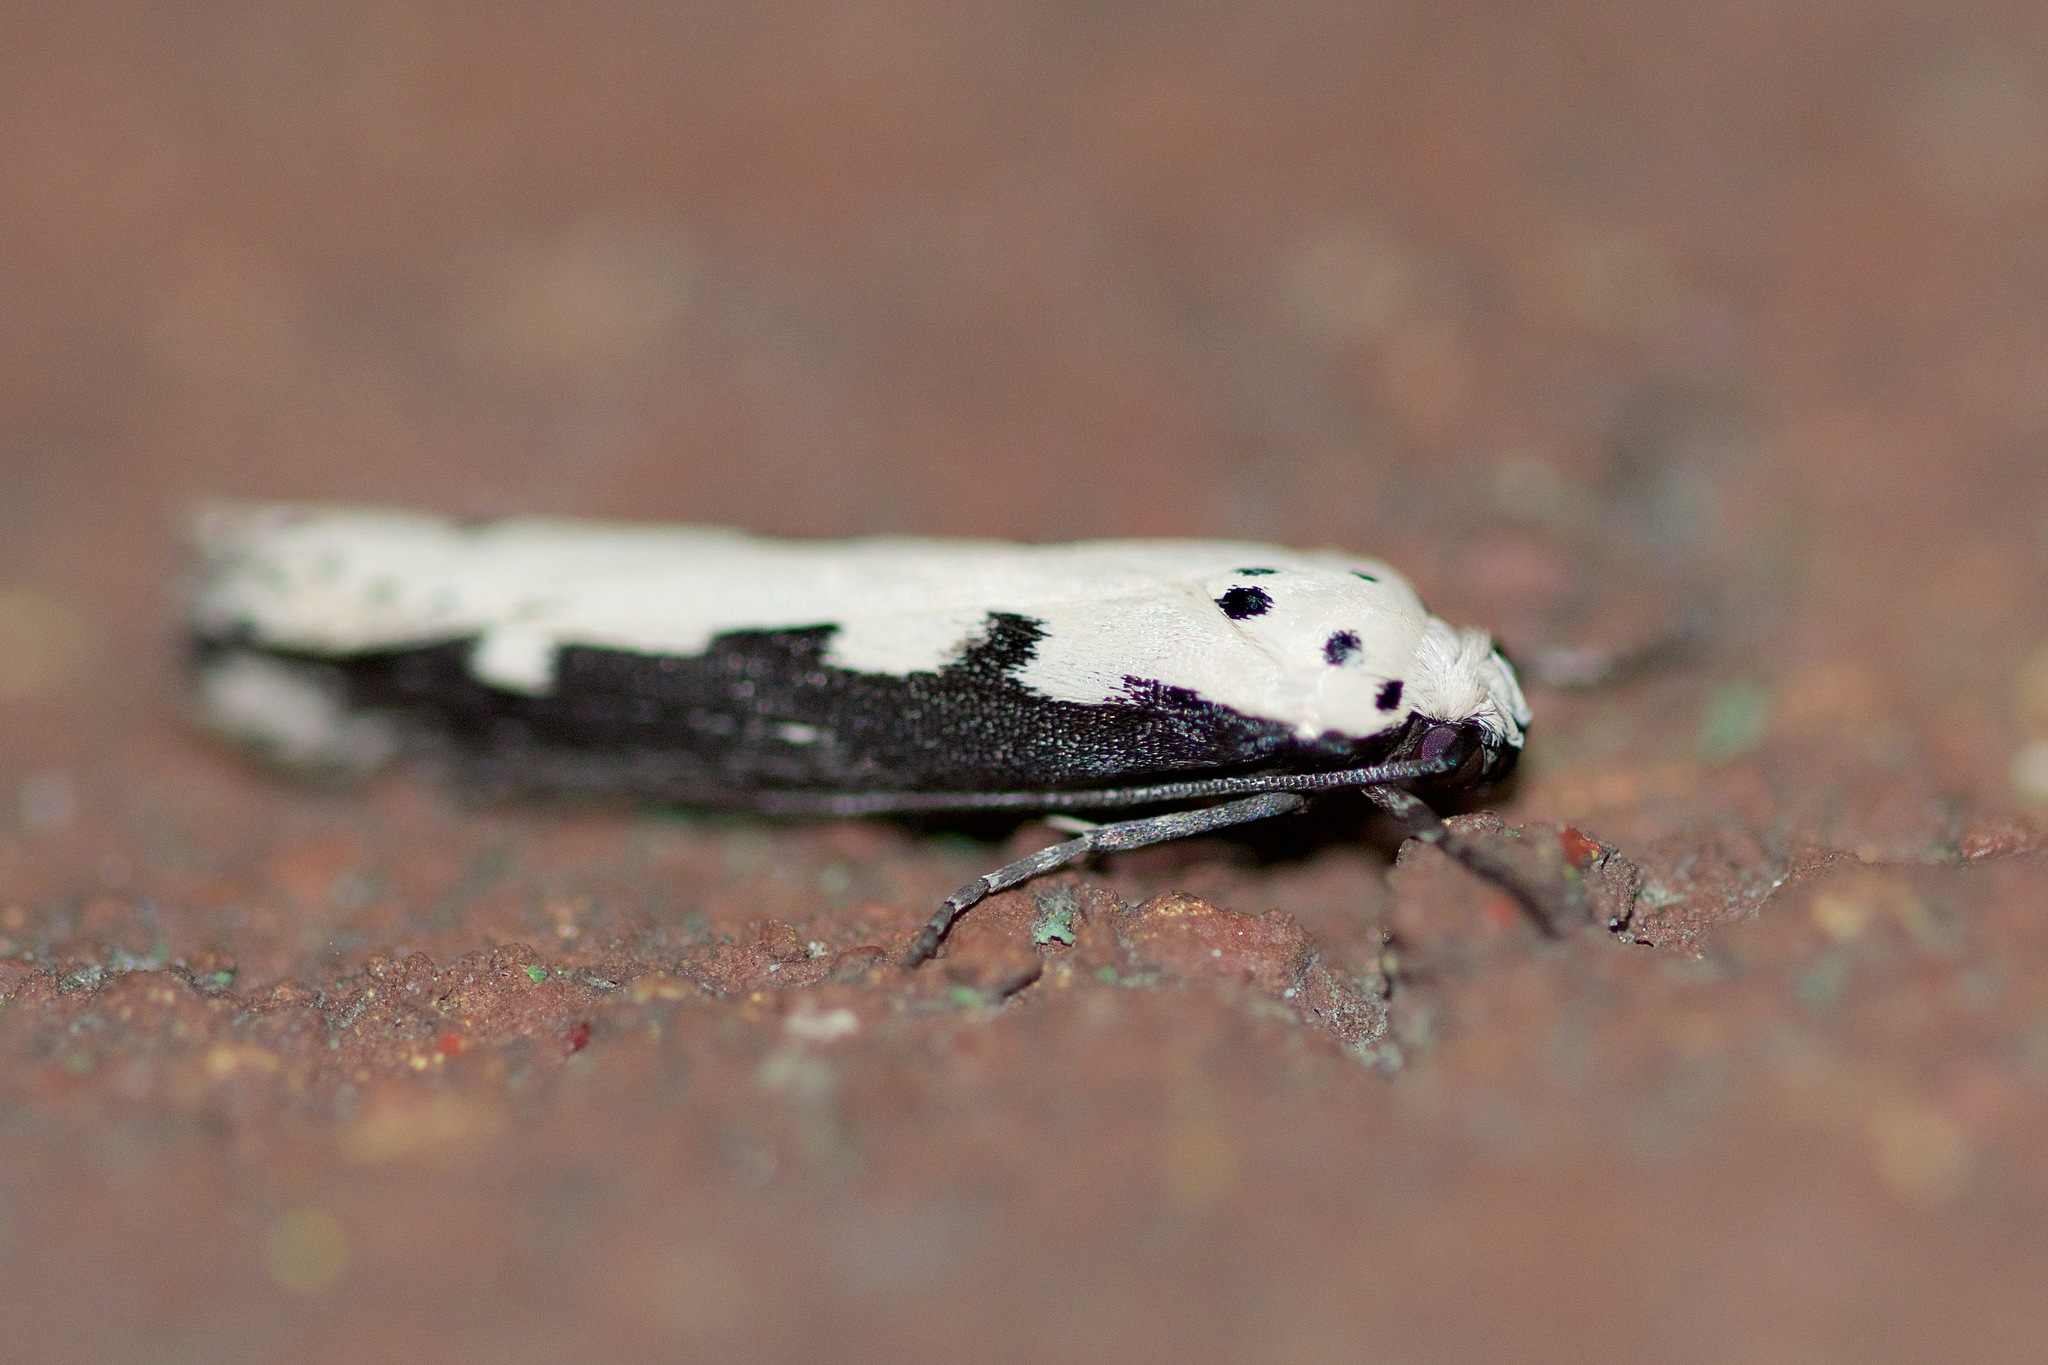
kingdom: Animalia
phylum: Arthropoda
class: Insecta
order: Lepidoptera
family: Ethmiidae
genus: Ethmia
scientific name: Ethmia bipunctella
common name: Bordered ermel
